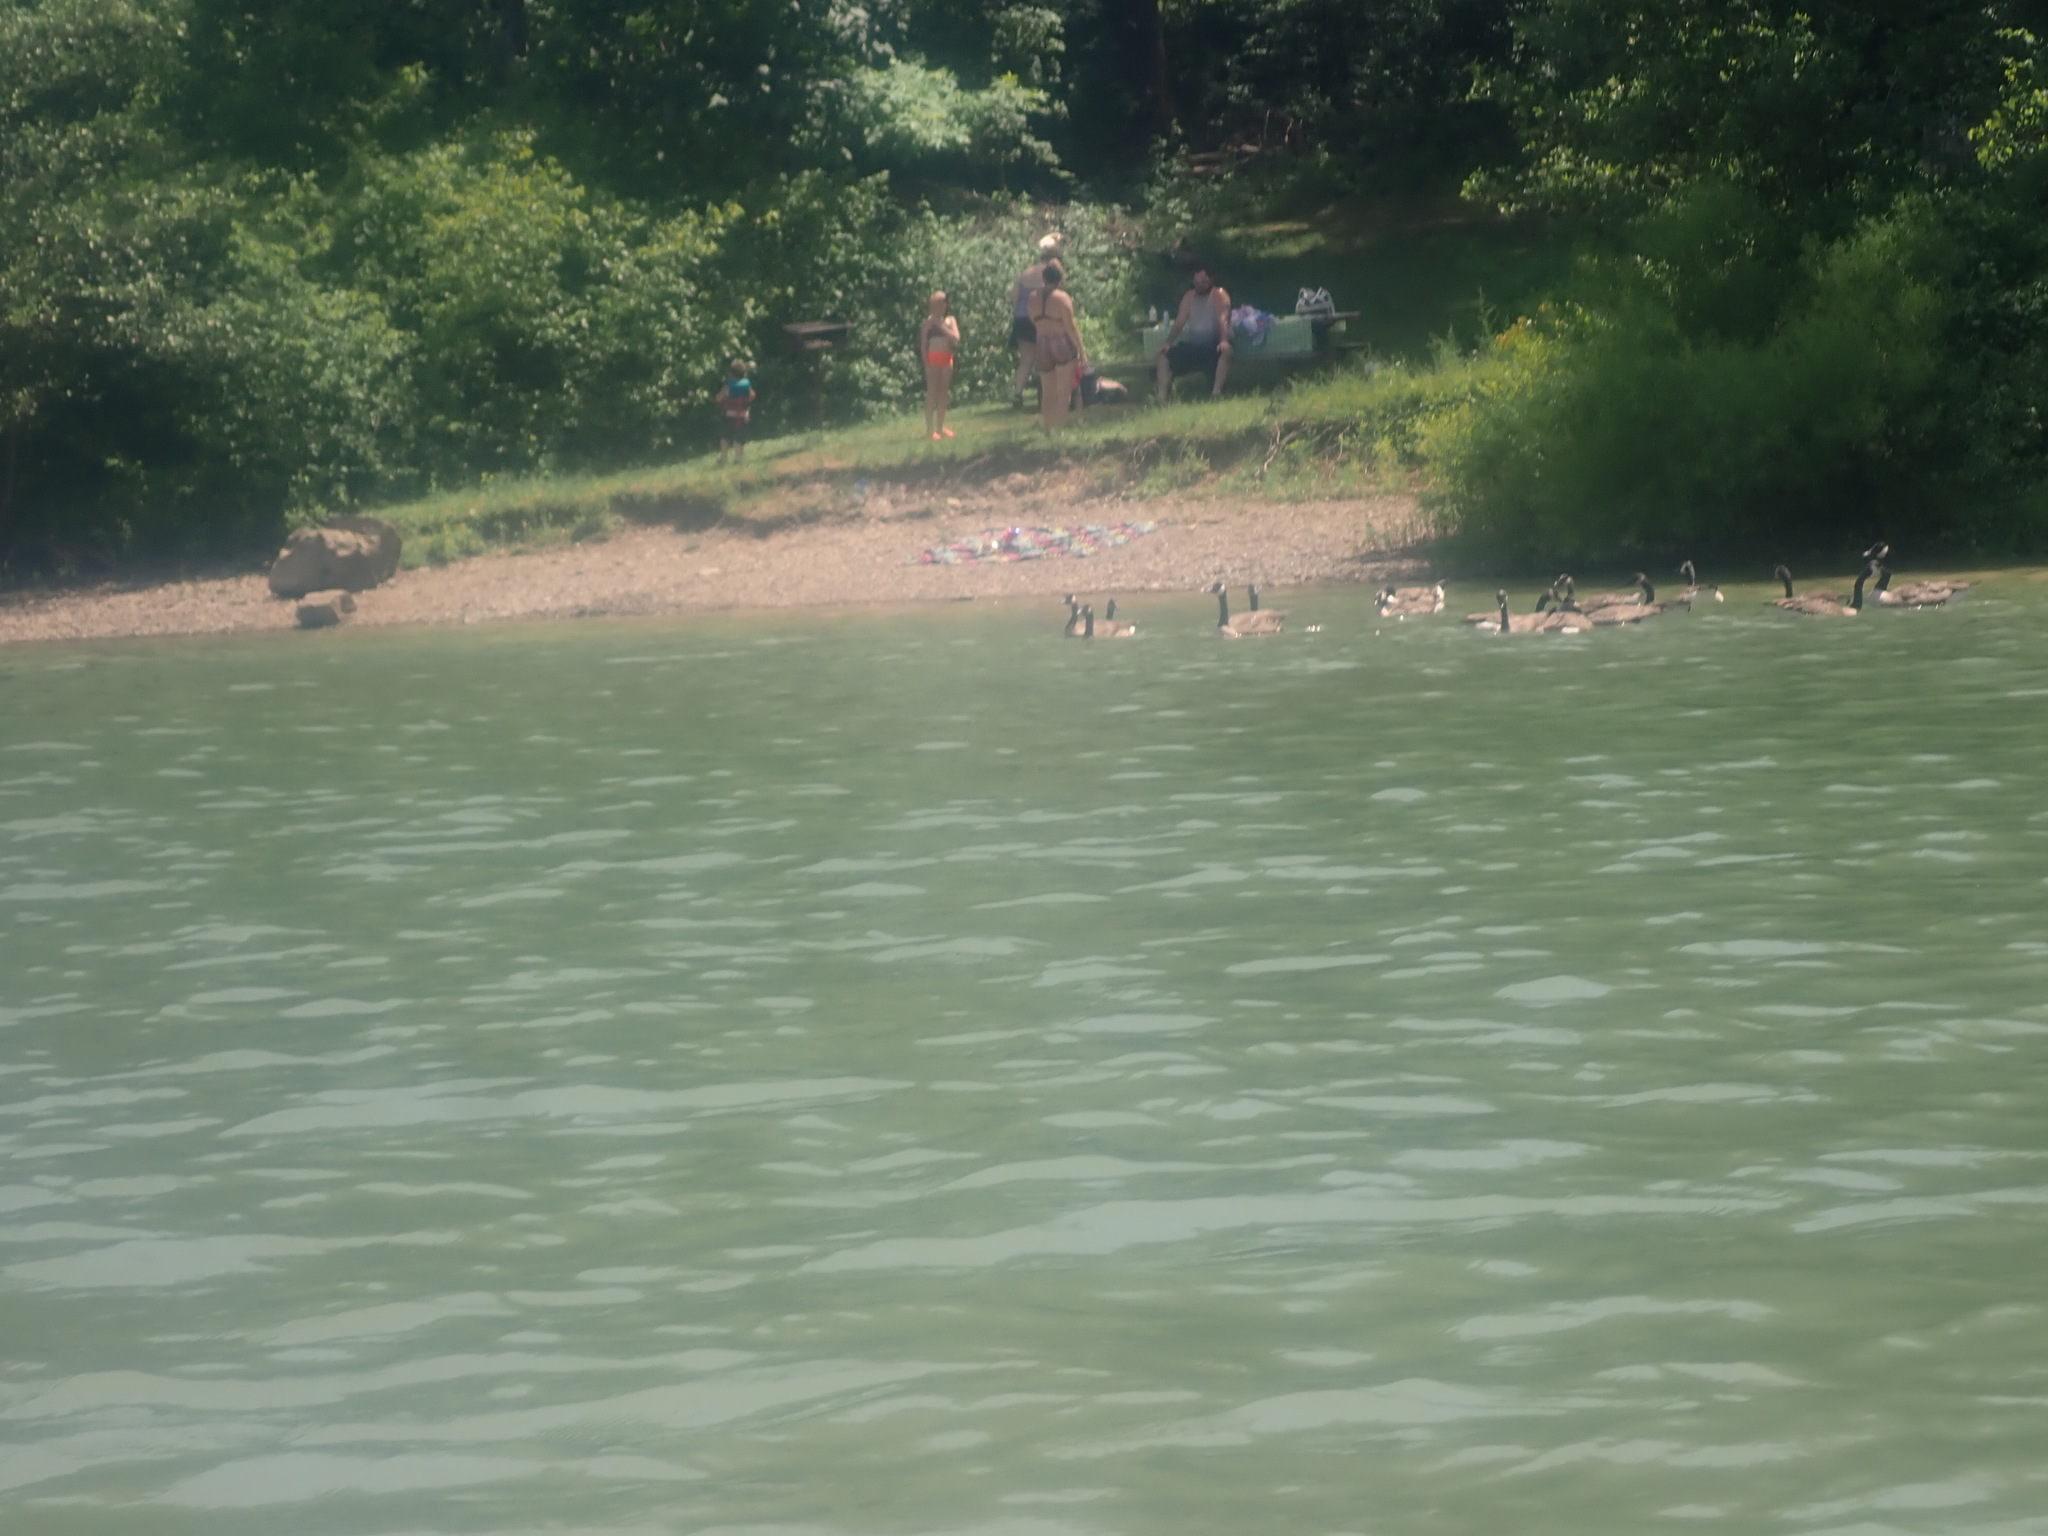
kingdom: Animalia
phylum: Chordata
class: Aves
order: Anseriformes
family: Anatidae
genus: Branta
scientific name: Branta canadensis
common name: Canada goose
